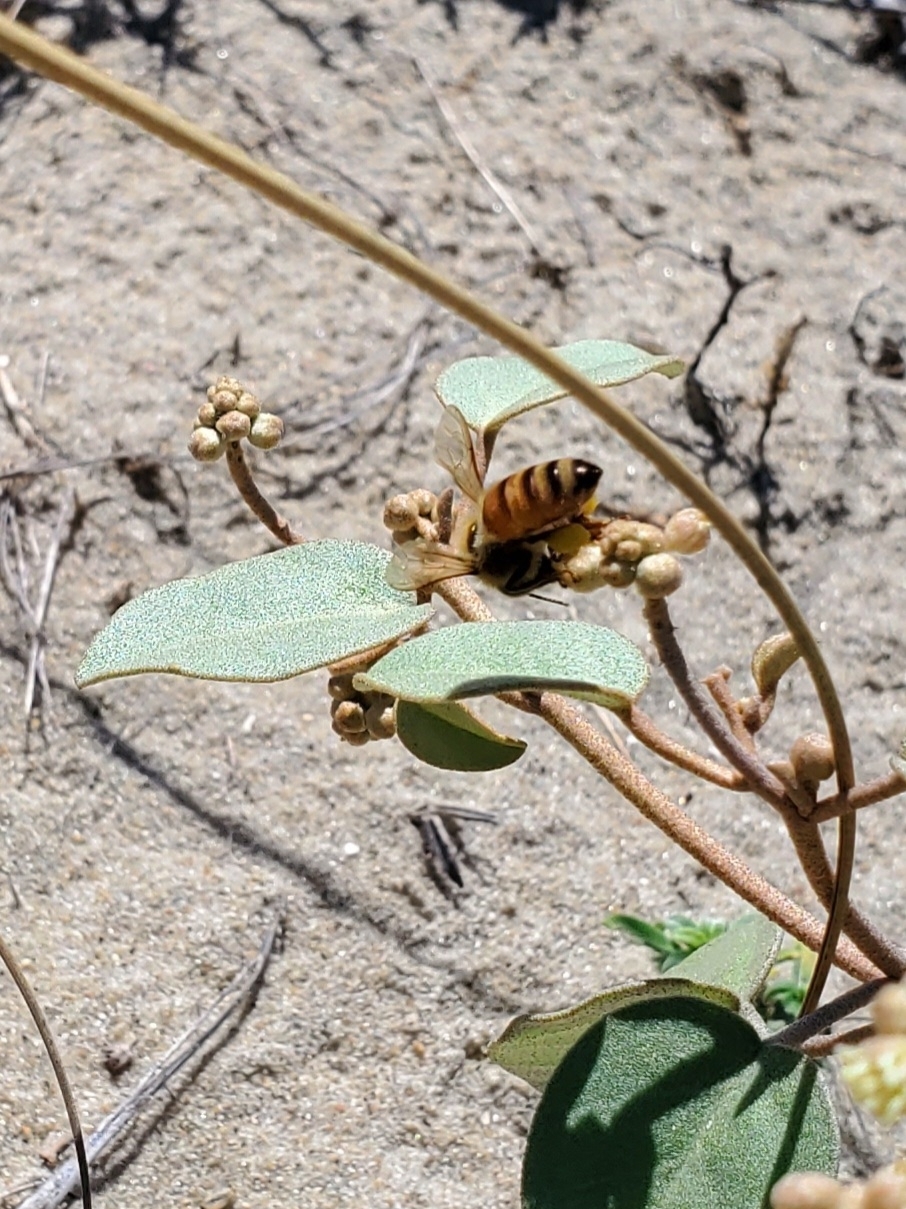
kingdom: Animalia
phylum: Arthropoda
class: Insecta
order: Hymenoptera
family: Apidae
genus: Apis
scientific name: Apis mellifera
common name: Honey bee
